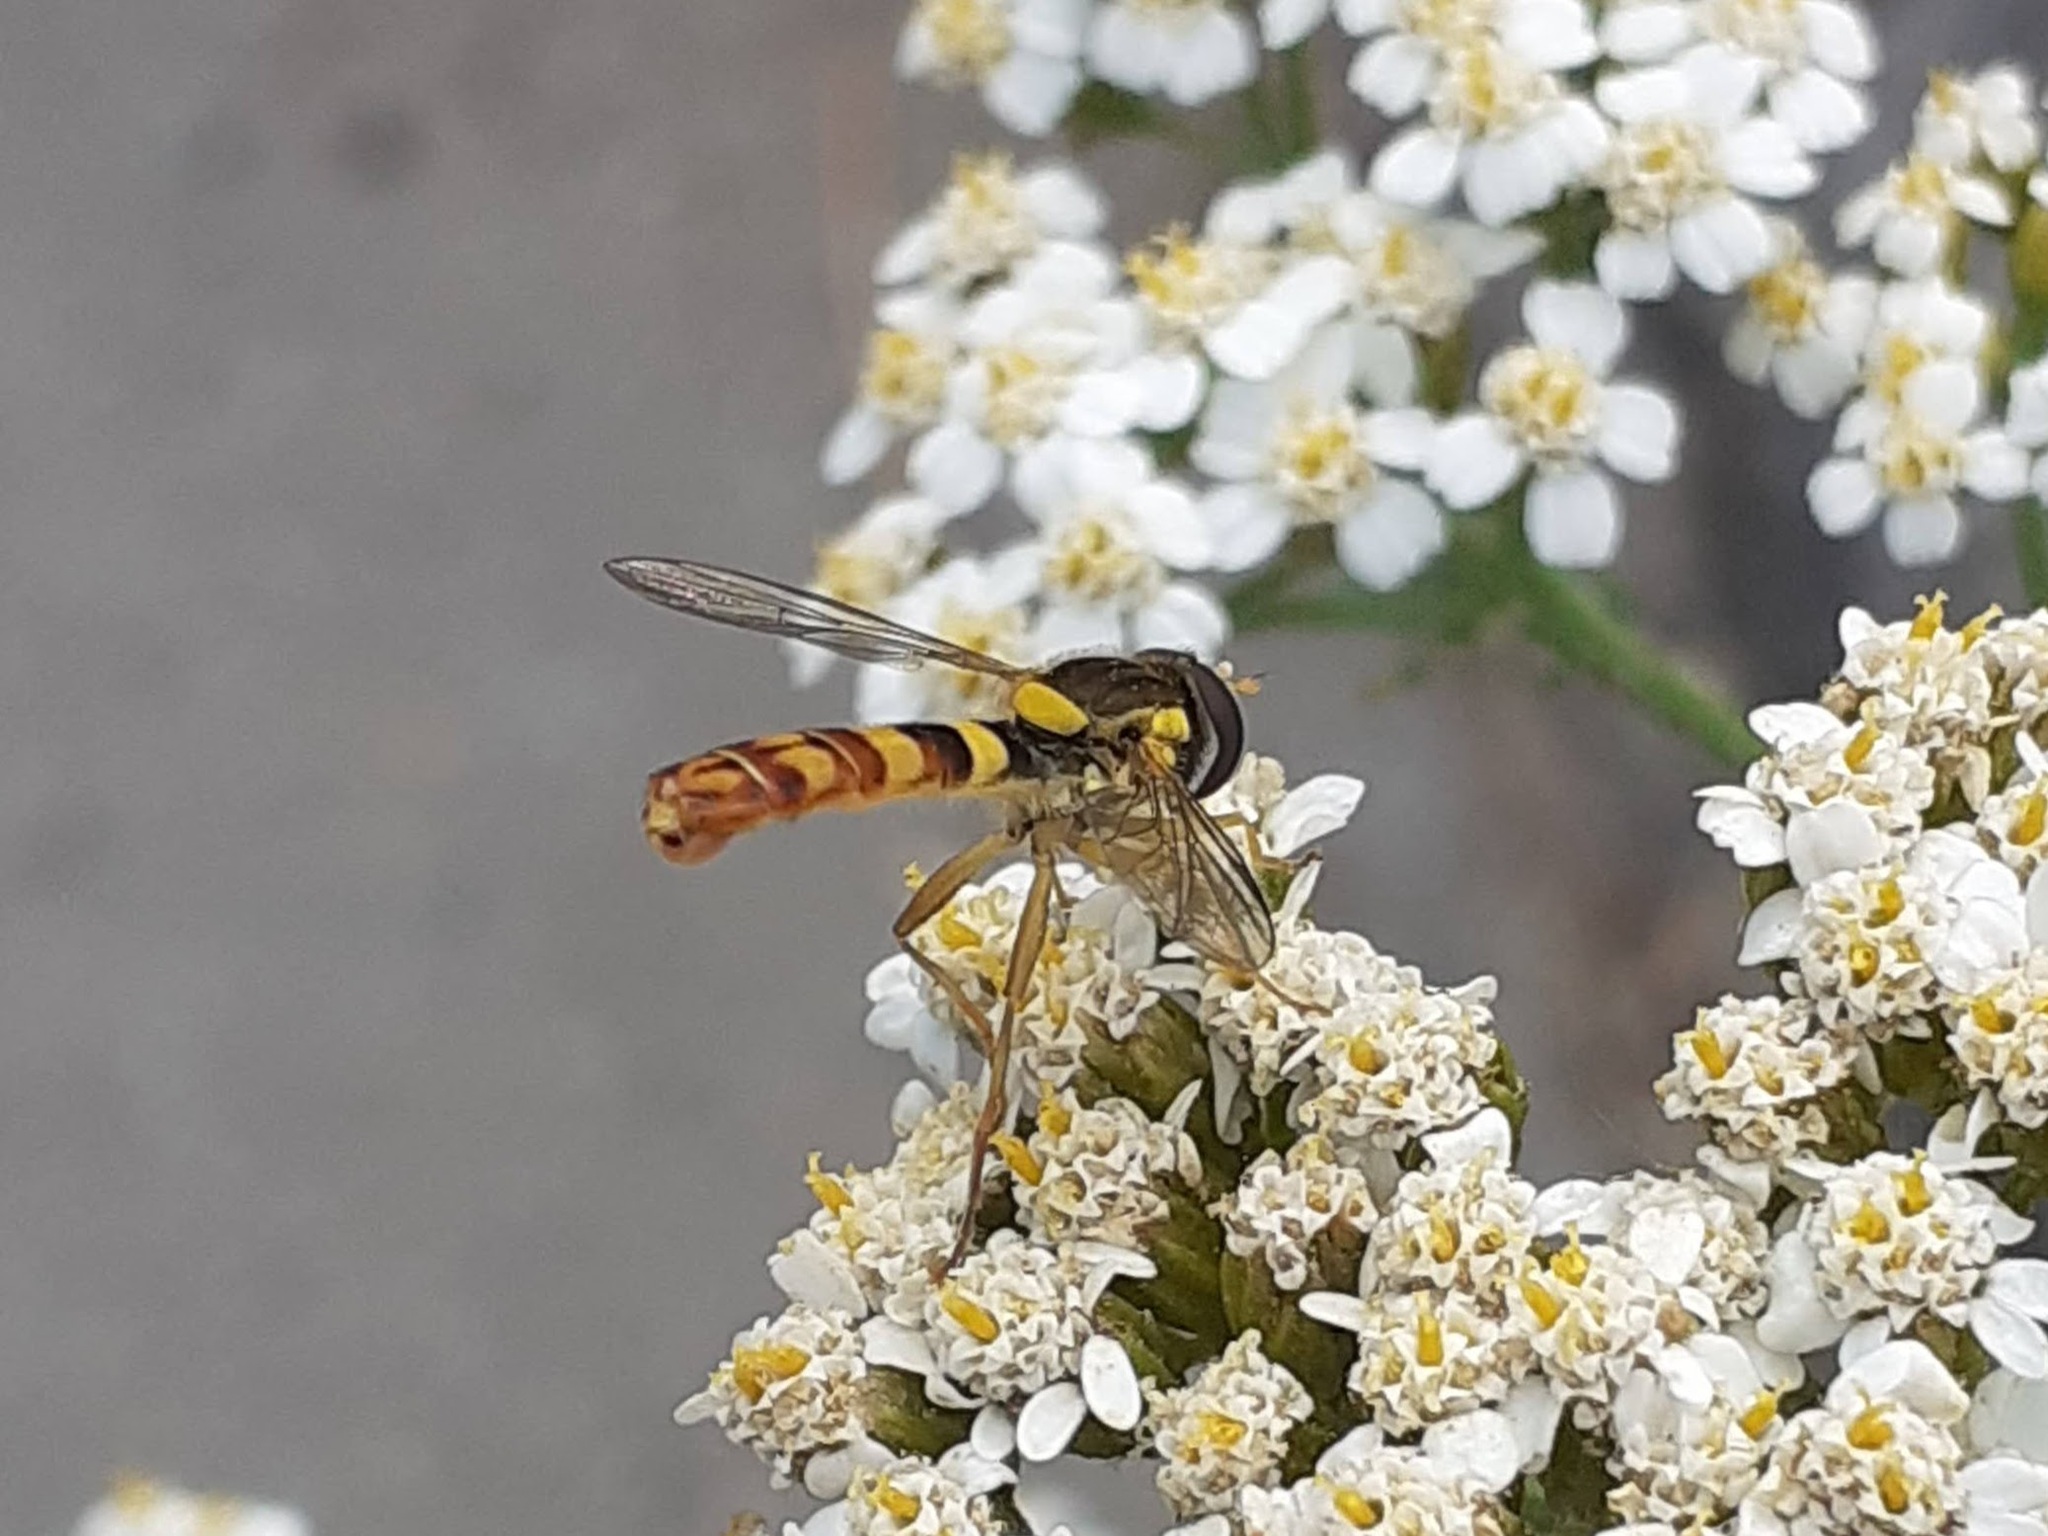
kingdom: Animalia
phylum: Arthropoda
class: Insecta
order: Diptera
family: Syrphidae
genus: Sphaerophoria
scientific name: Sphaerophoria scripta
